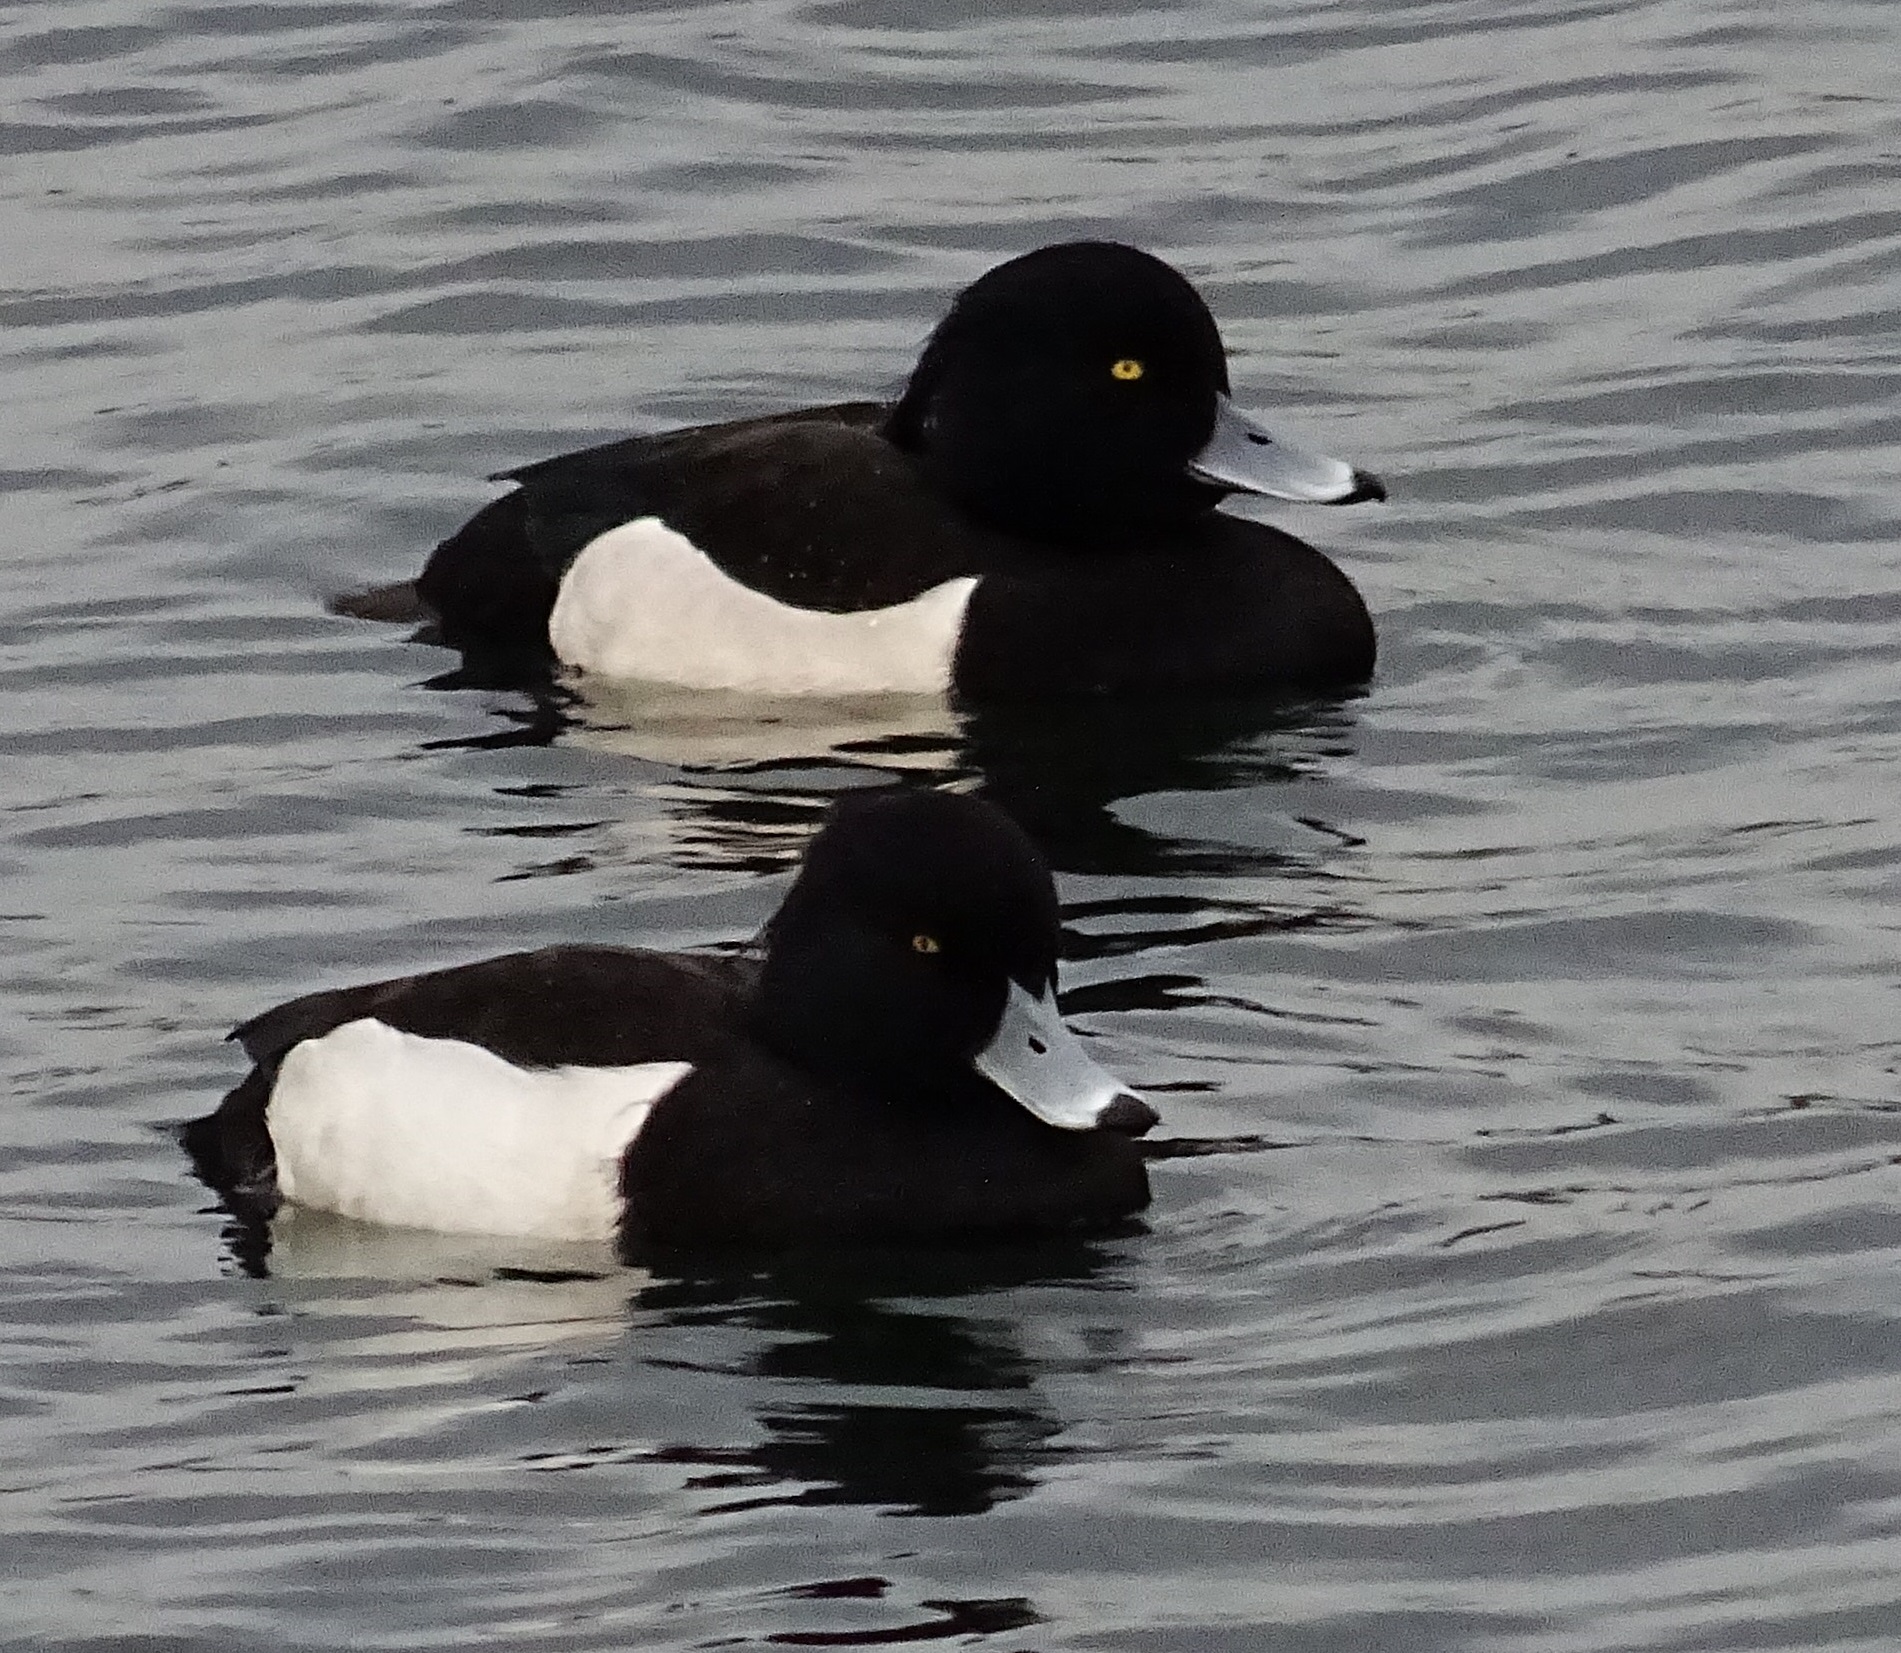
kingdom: Animalia
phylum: Chordata
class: Aves
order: Anseriformes
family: Anatidae
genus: Aythya
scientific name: Aythya fuligula
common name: Tufted duck
